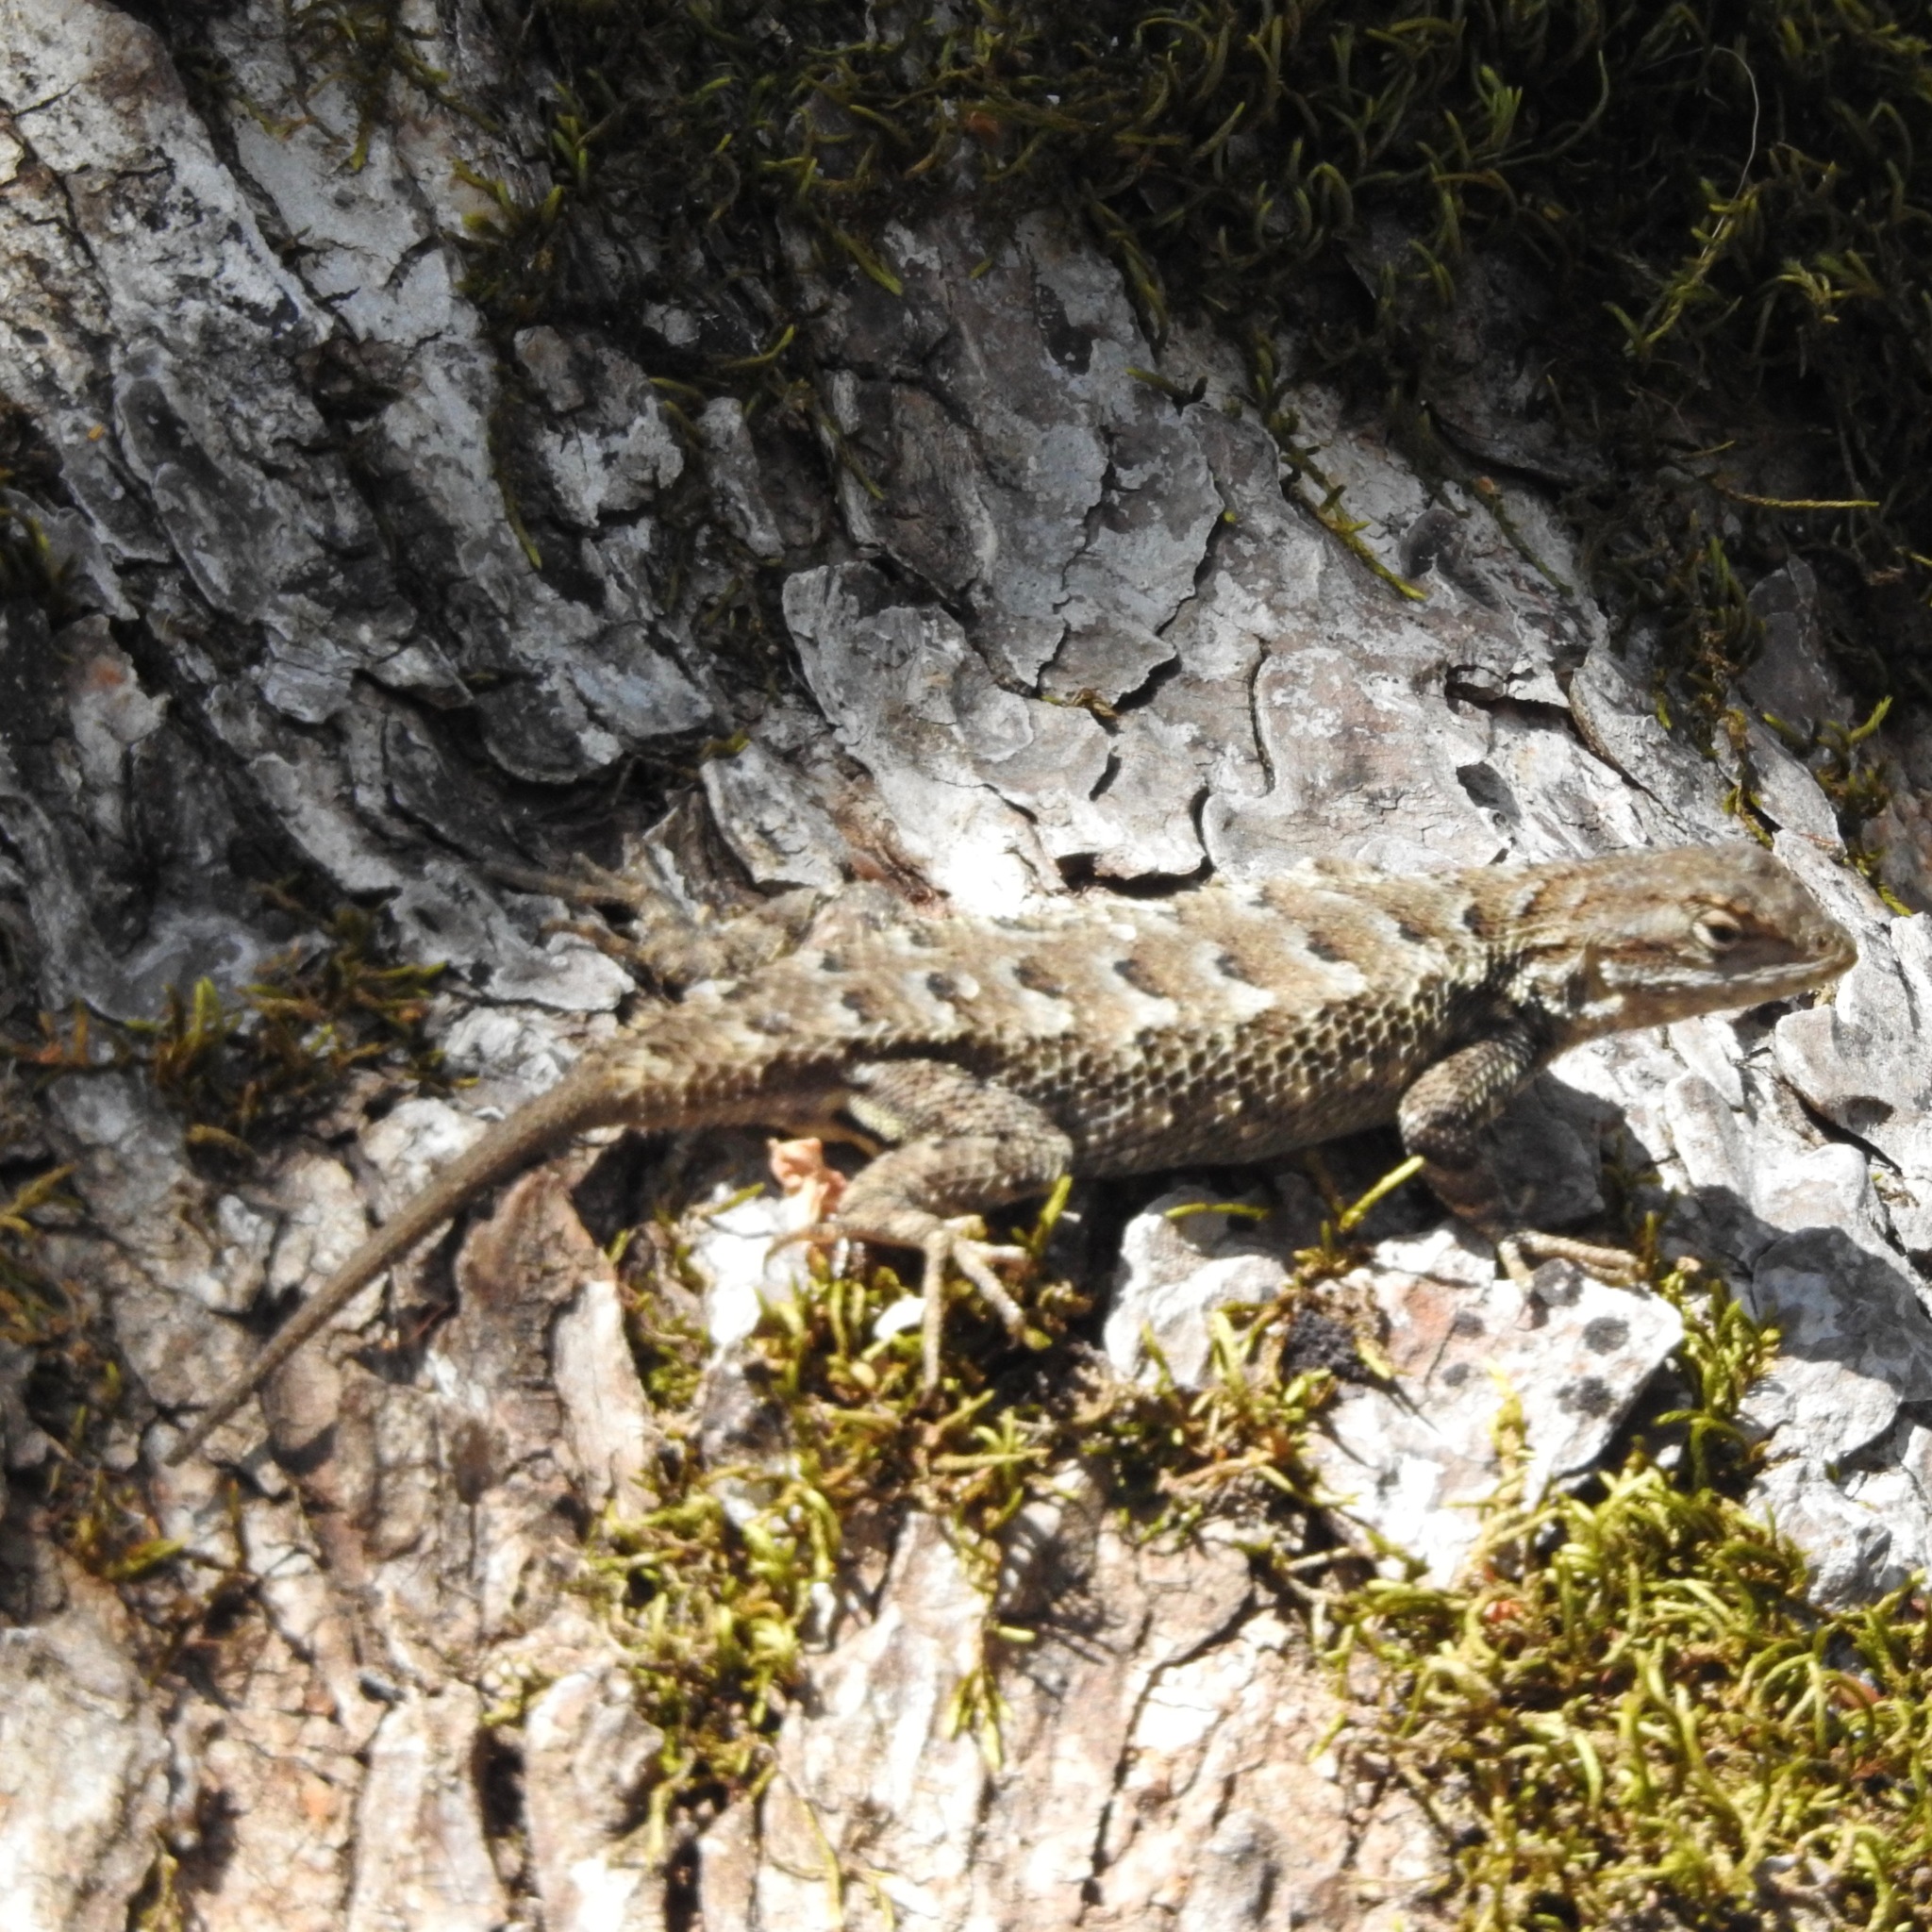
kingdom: Animalia
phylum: Chordata
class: Squamata
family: Phrynosomatidae
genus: Sceloporus
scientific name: Sceloporus occidentalis
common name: Western fence lizard
